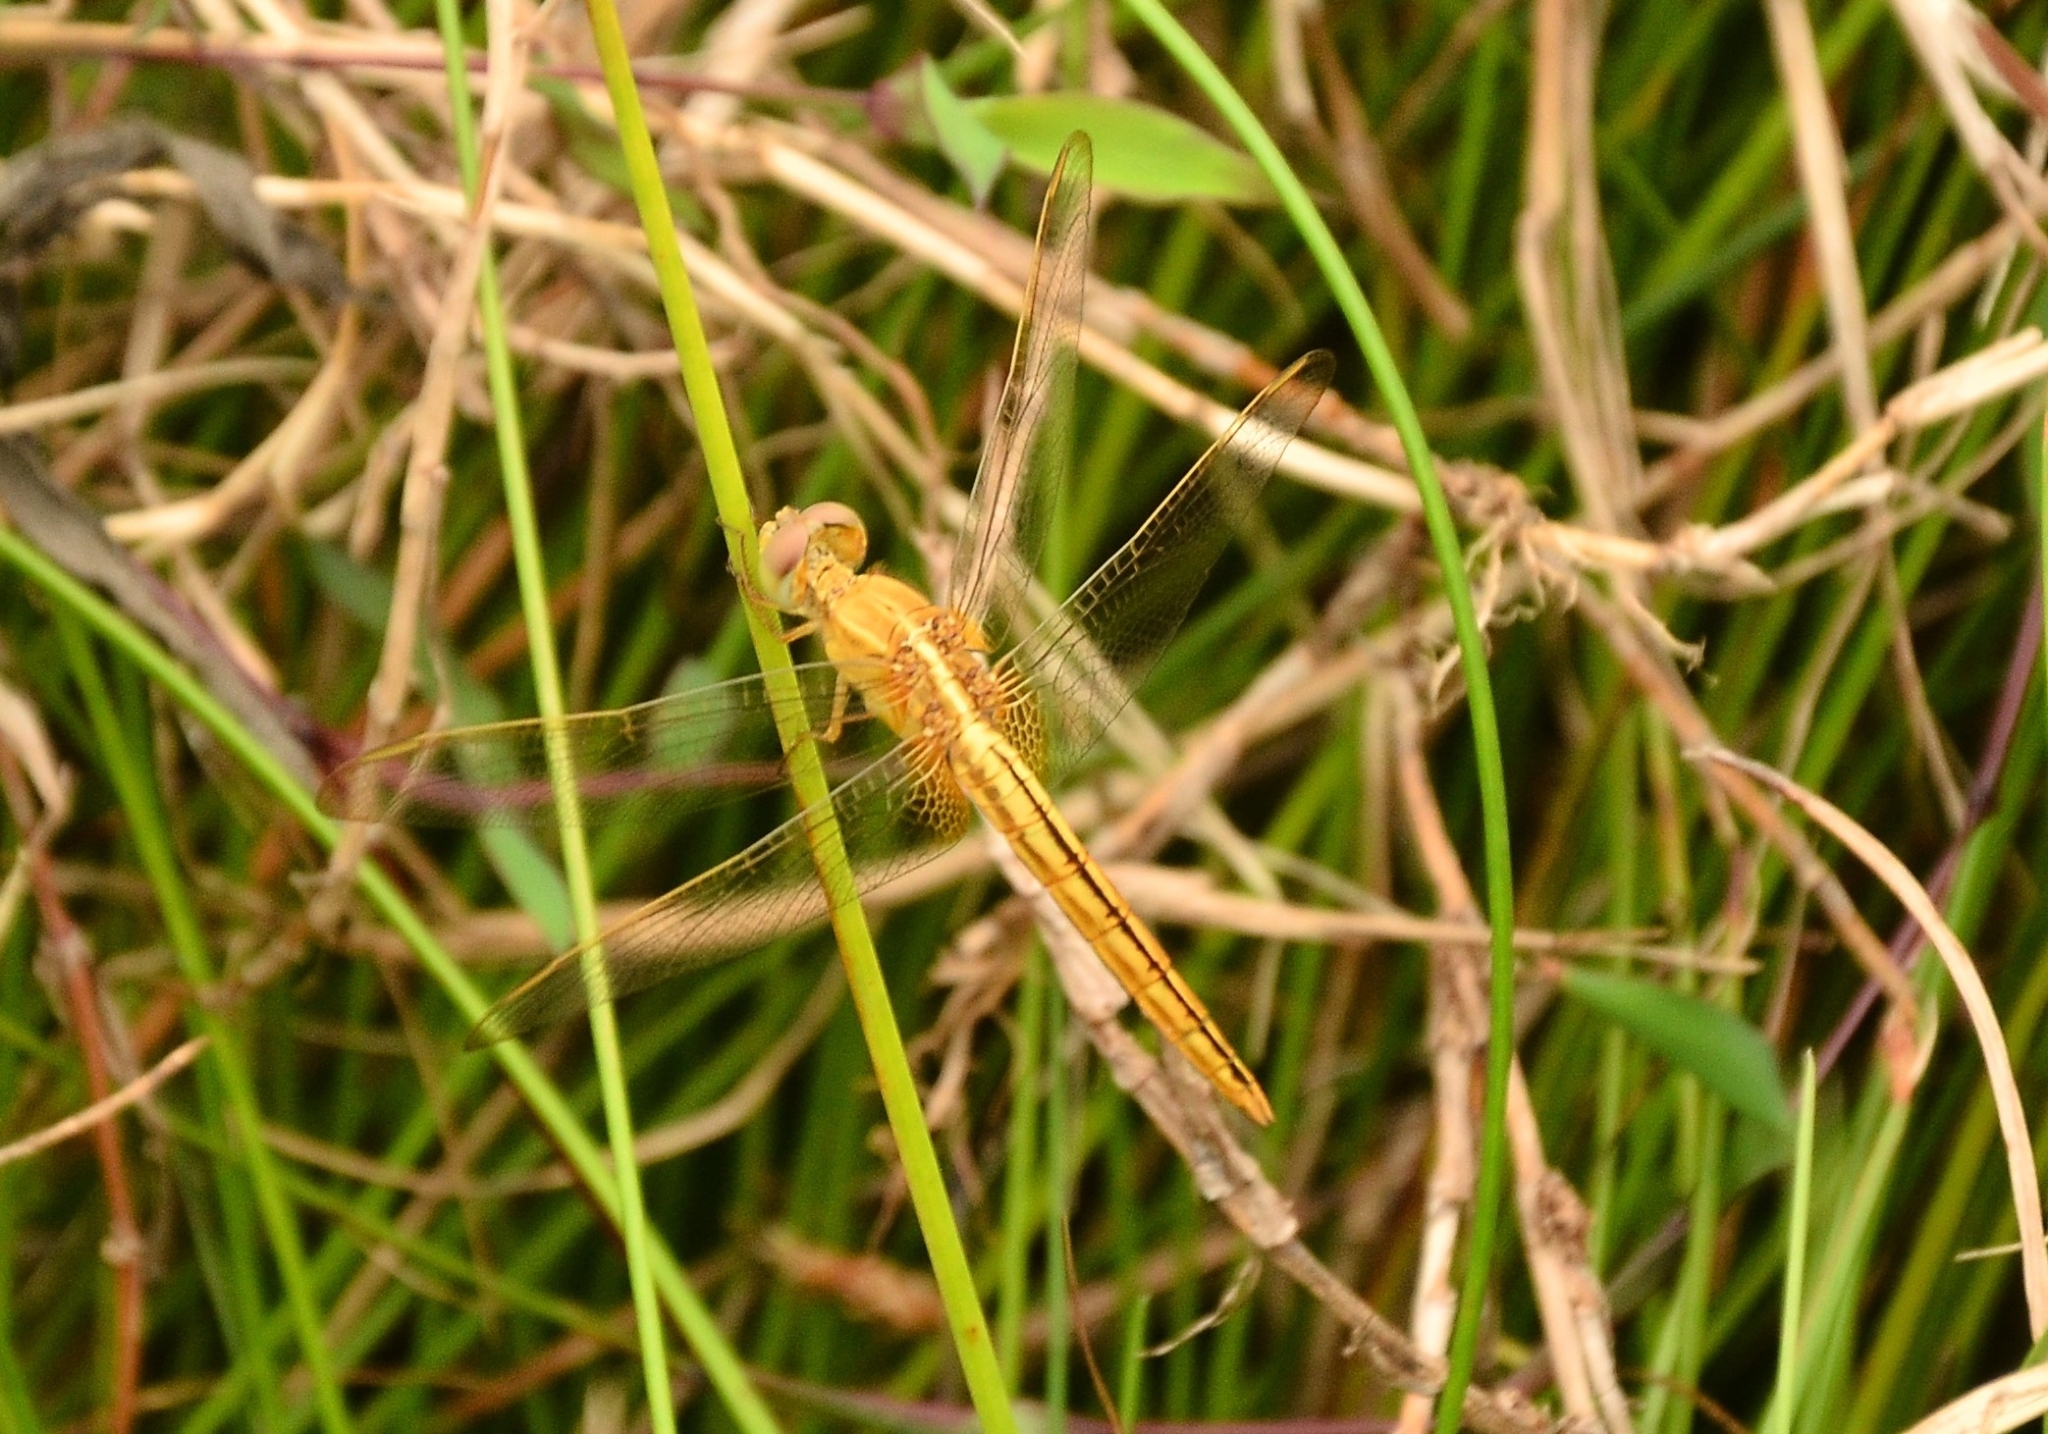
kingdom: Animalia
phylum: Arthropoda
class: Insecta
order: Odonata
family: Libellulidae
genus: Crocothemis
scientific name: Crocothemis servilia
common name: Scarlet skimmer
